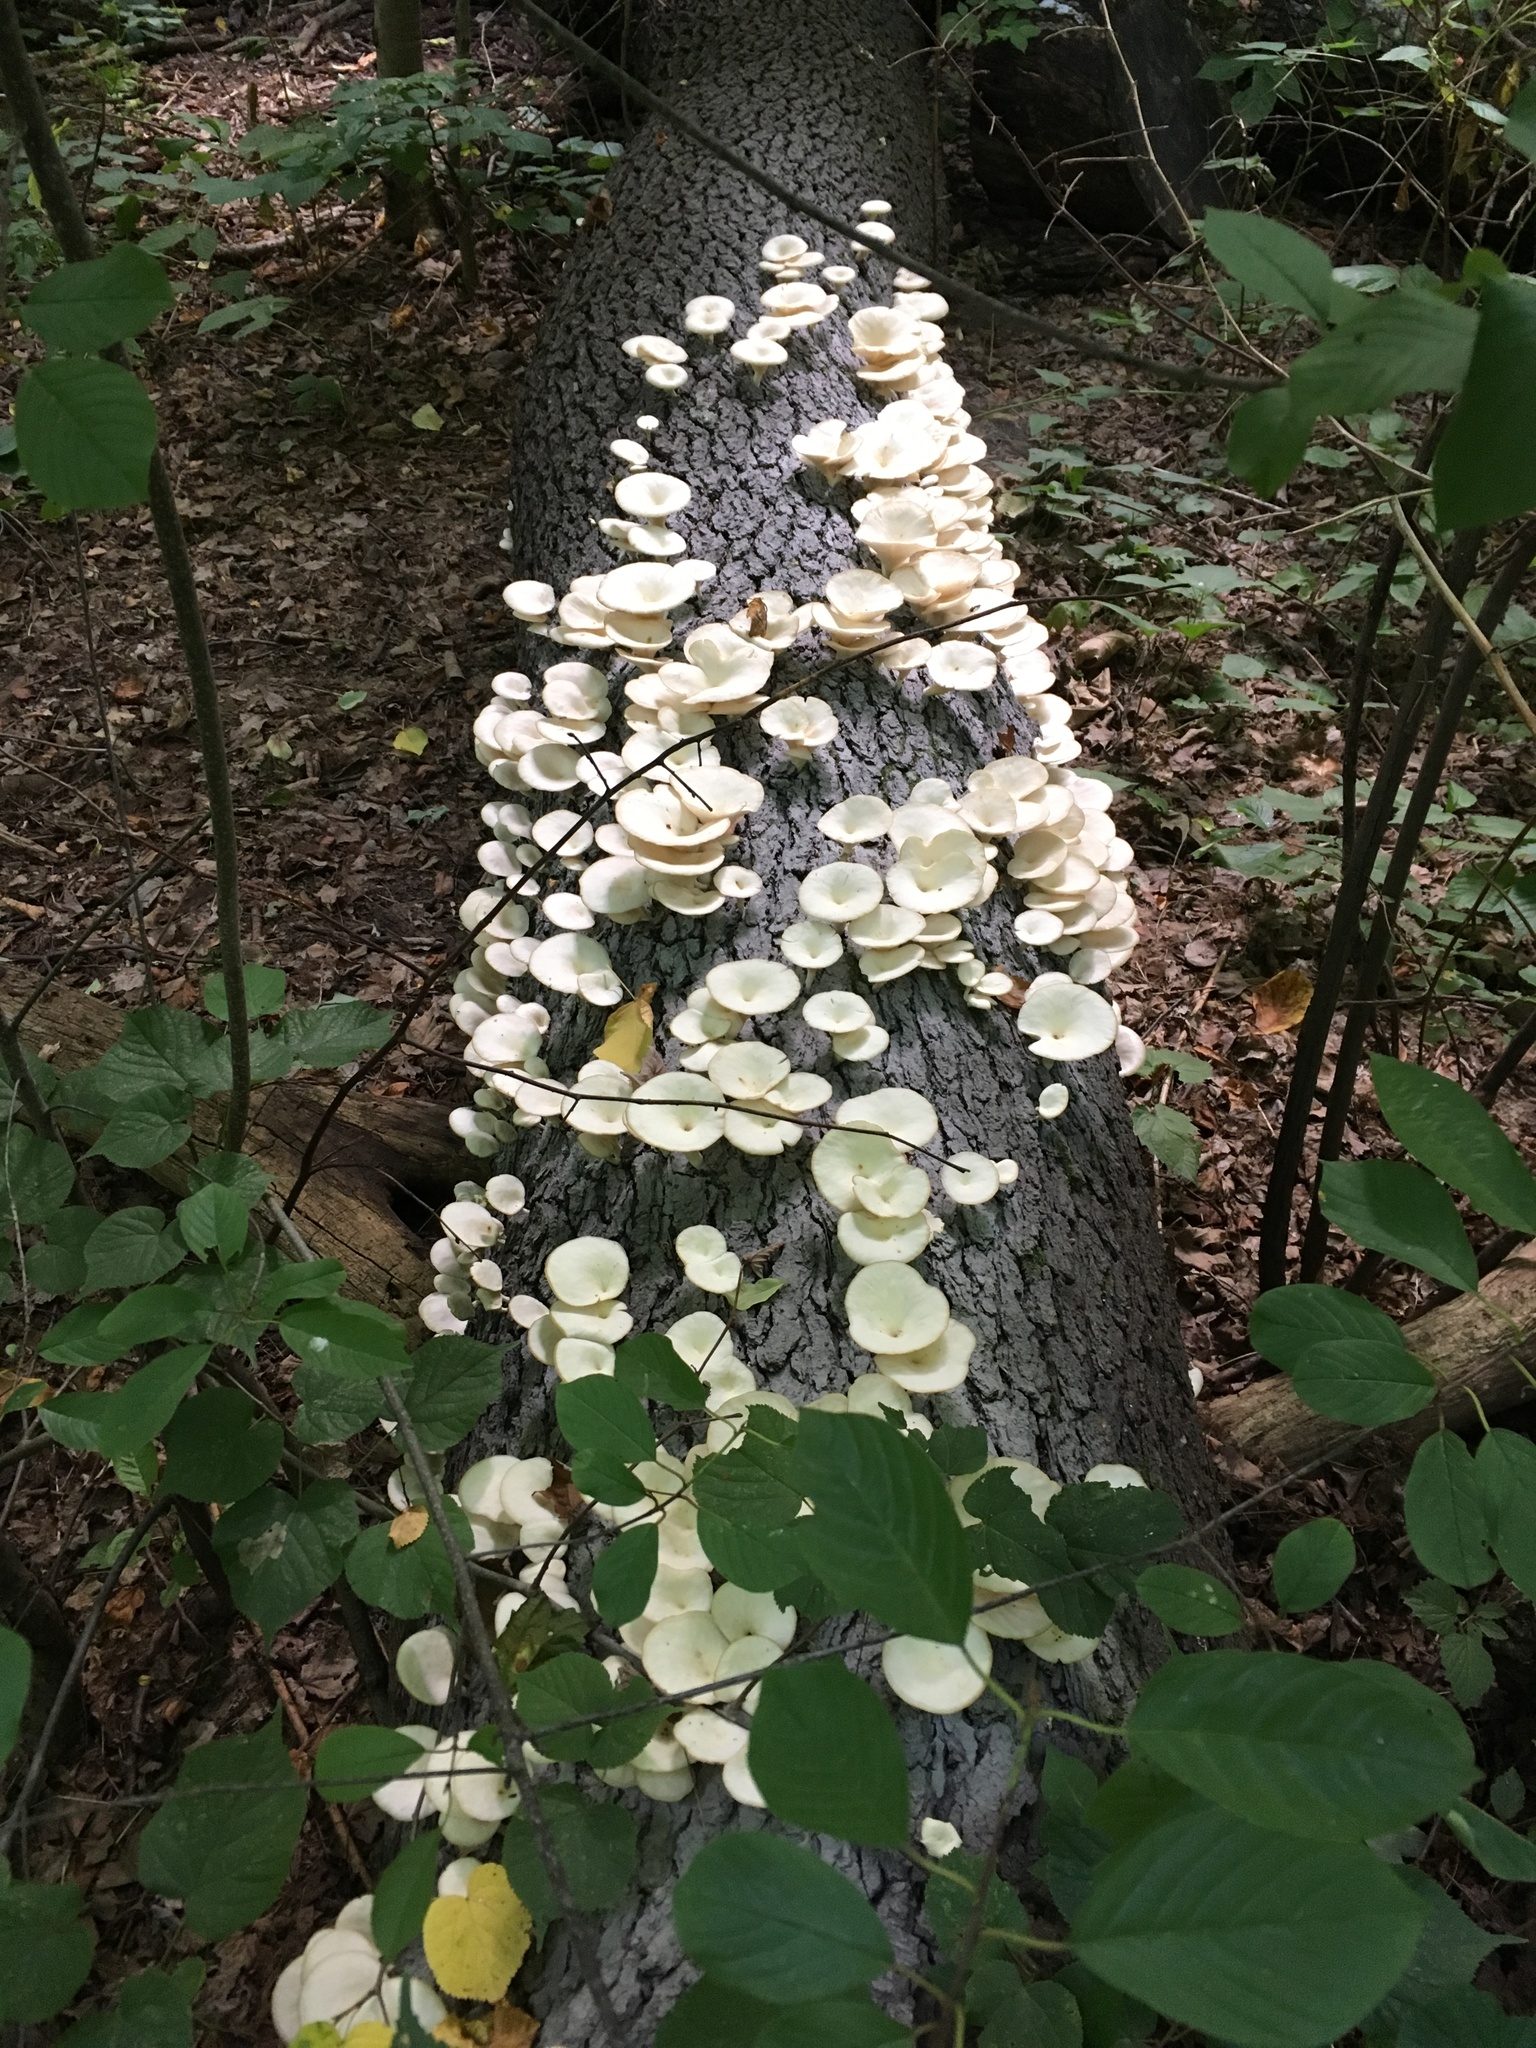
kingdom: Fungi
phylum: Basidiomycota
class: Agaricomycetes
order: Agaricales
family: Pleurotaceae
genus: Pleurotus
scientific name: Pleurotus pulmonarius
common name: Pale oyster
